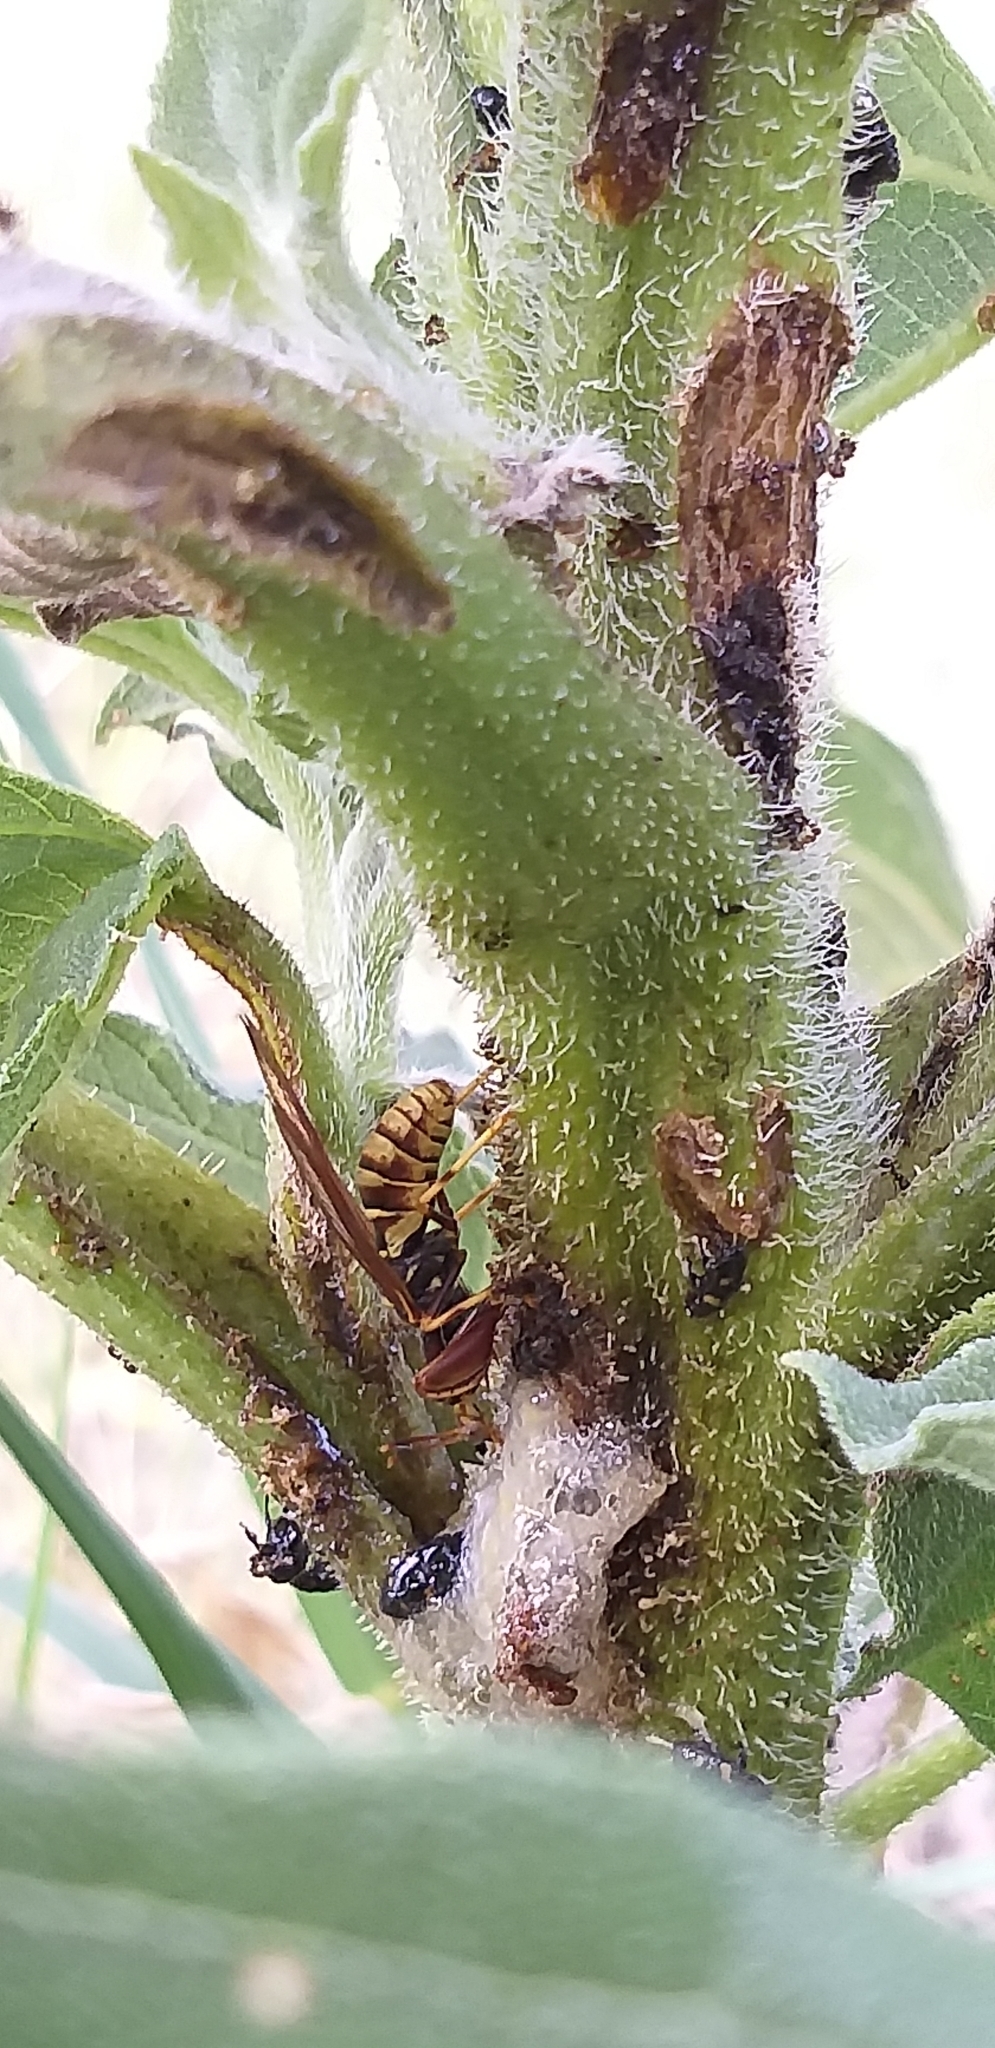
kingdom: Animalia
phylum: Arthropoda
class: Insecta
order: Neuroptera
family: Mantispidae
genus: Climaciella
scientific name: Climaciella brunnea
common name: Brown wasp mantidfly
